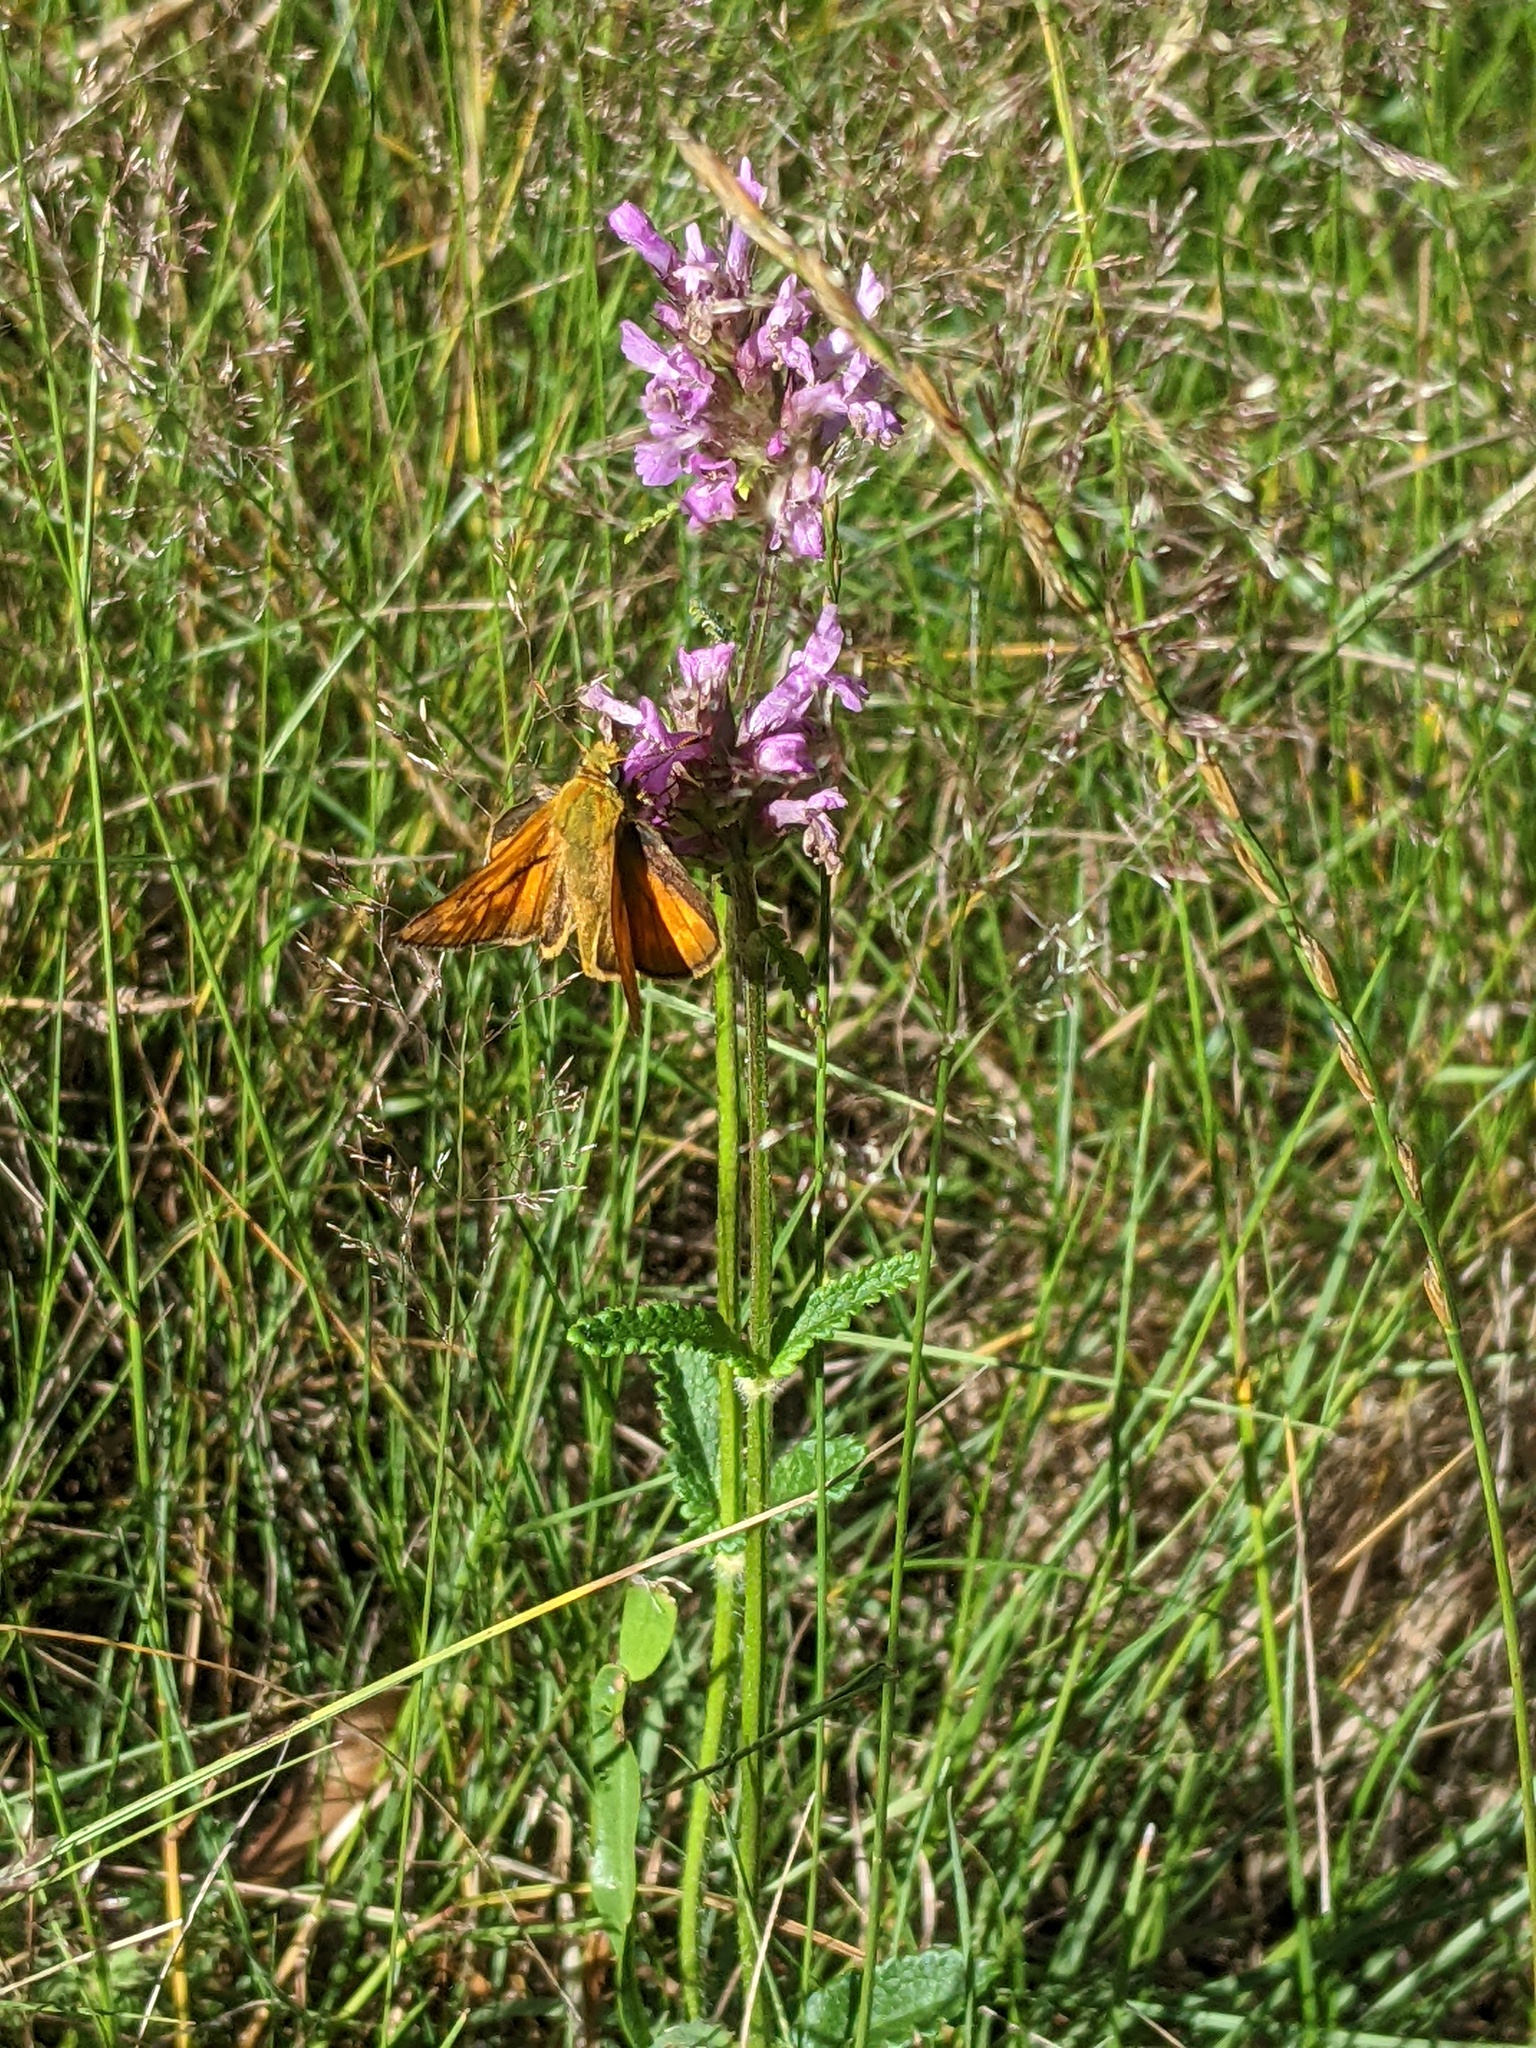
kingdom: Animalia
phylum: Arthropoda
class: Insecta
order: Lepidoptera
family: Hesperiidae
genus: Ochlodes
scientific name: Ochlodes venata
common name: Large skipper
